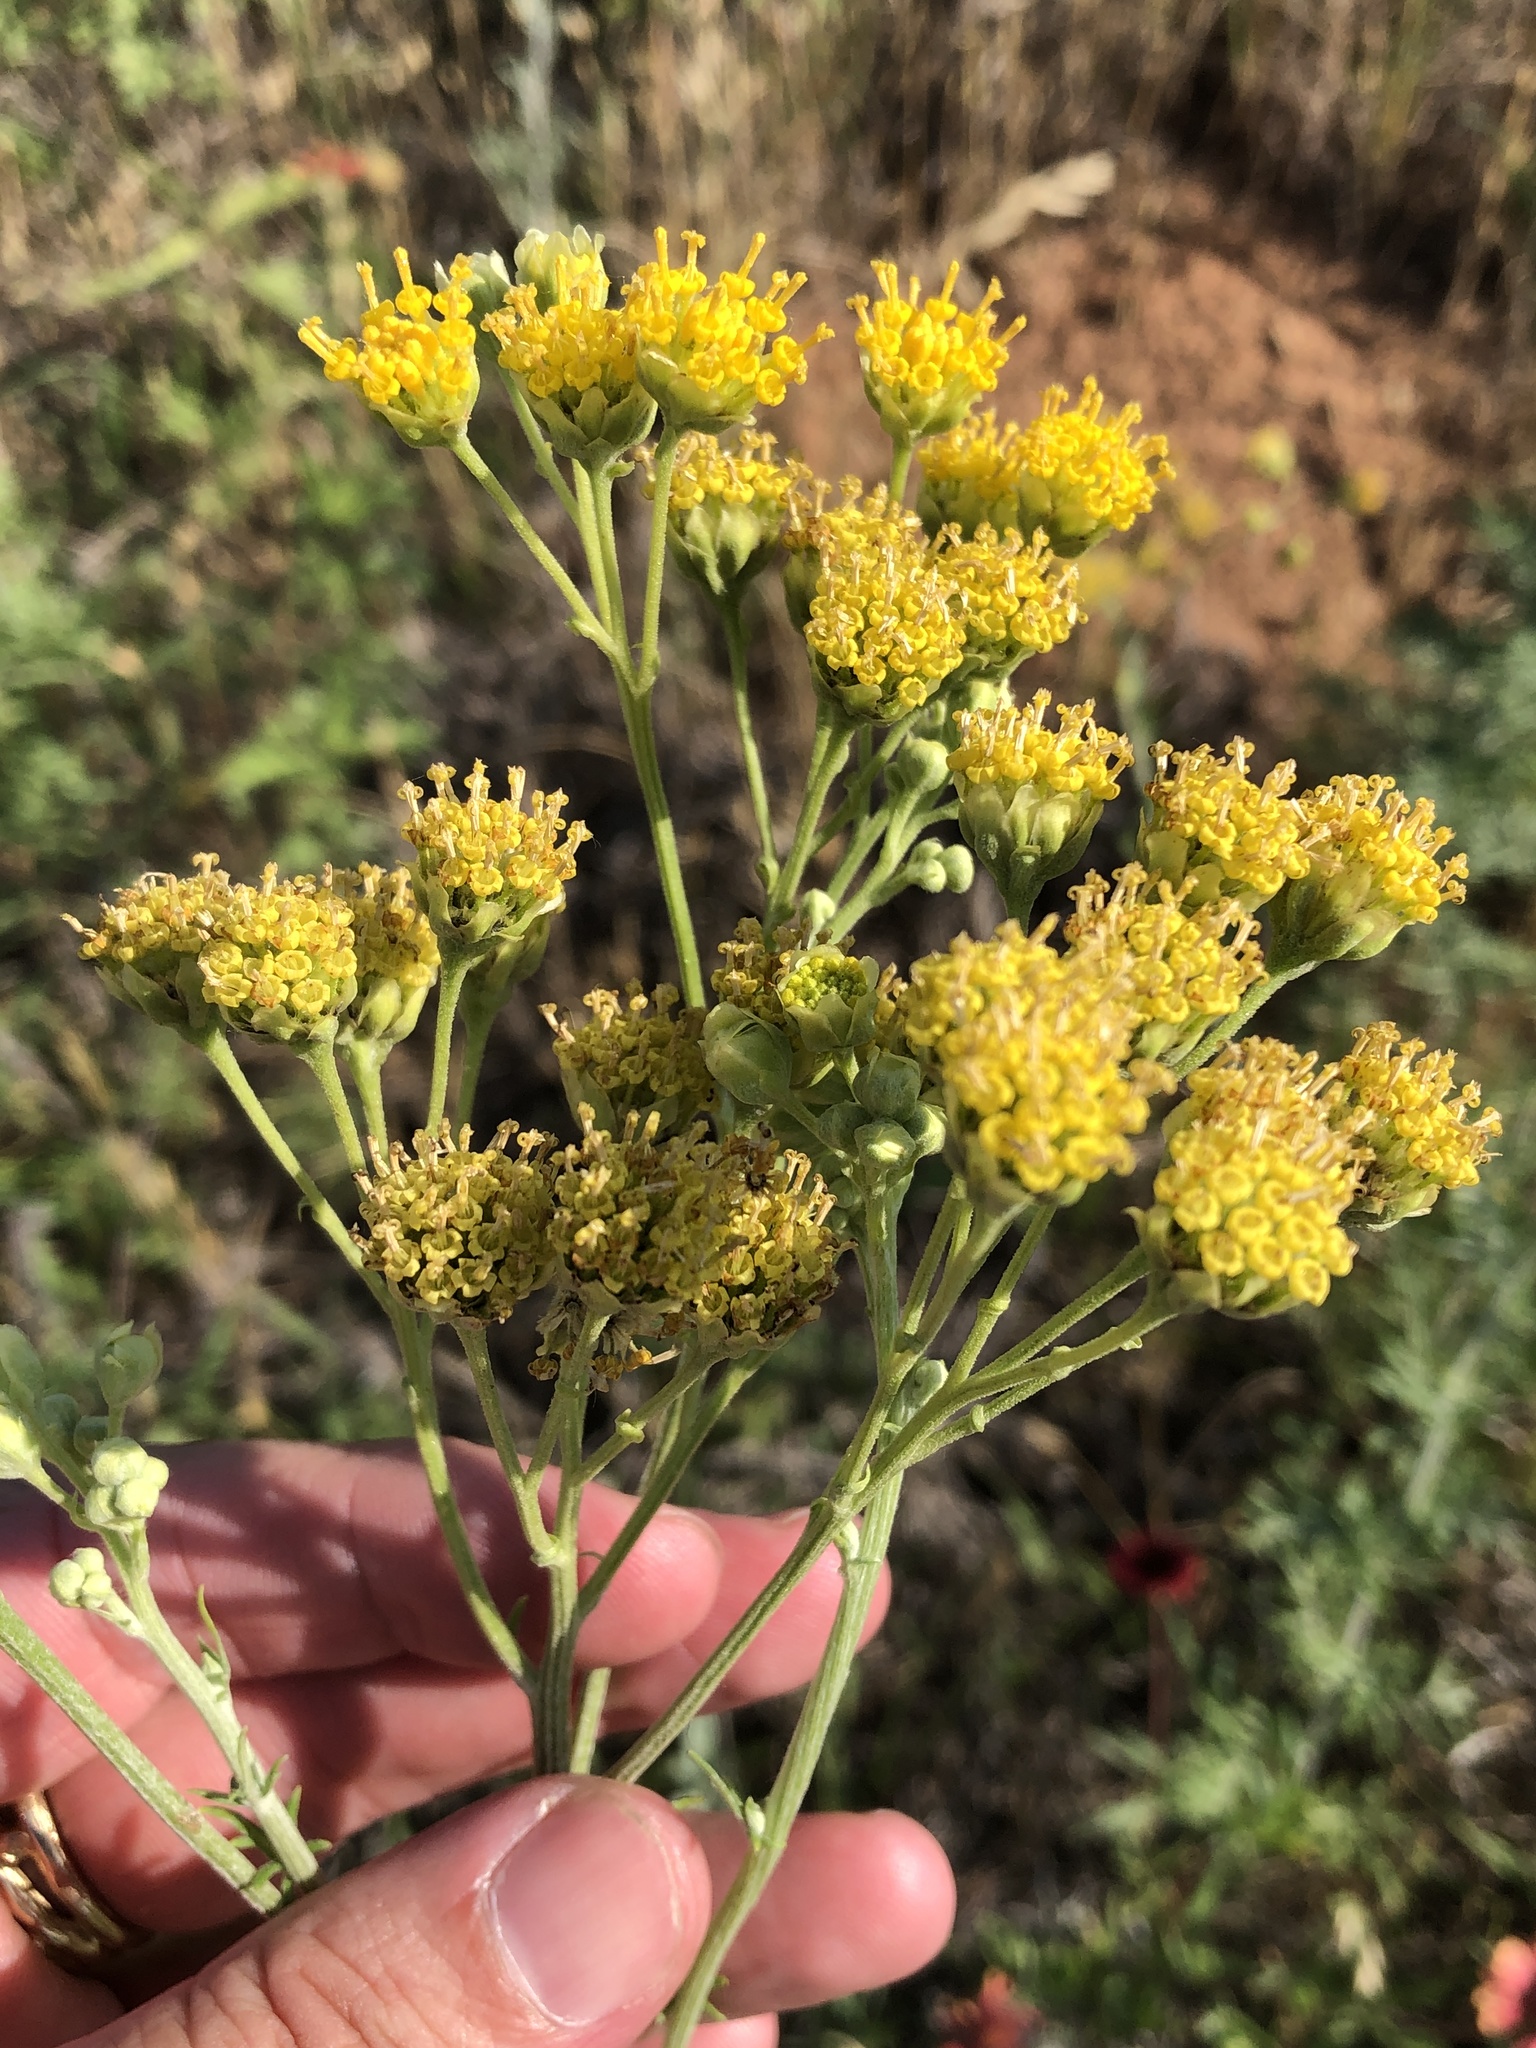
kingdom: Plantae
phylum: Tracheophyta
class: Magnoliopsida
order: Asterales
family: Asteraceae
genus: Hymenopappus
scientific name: Hymenopappus flavescens
